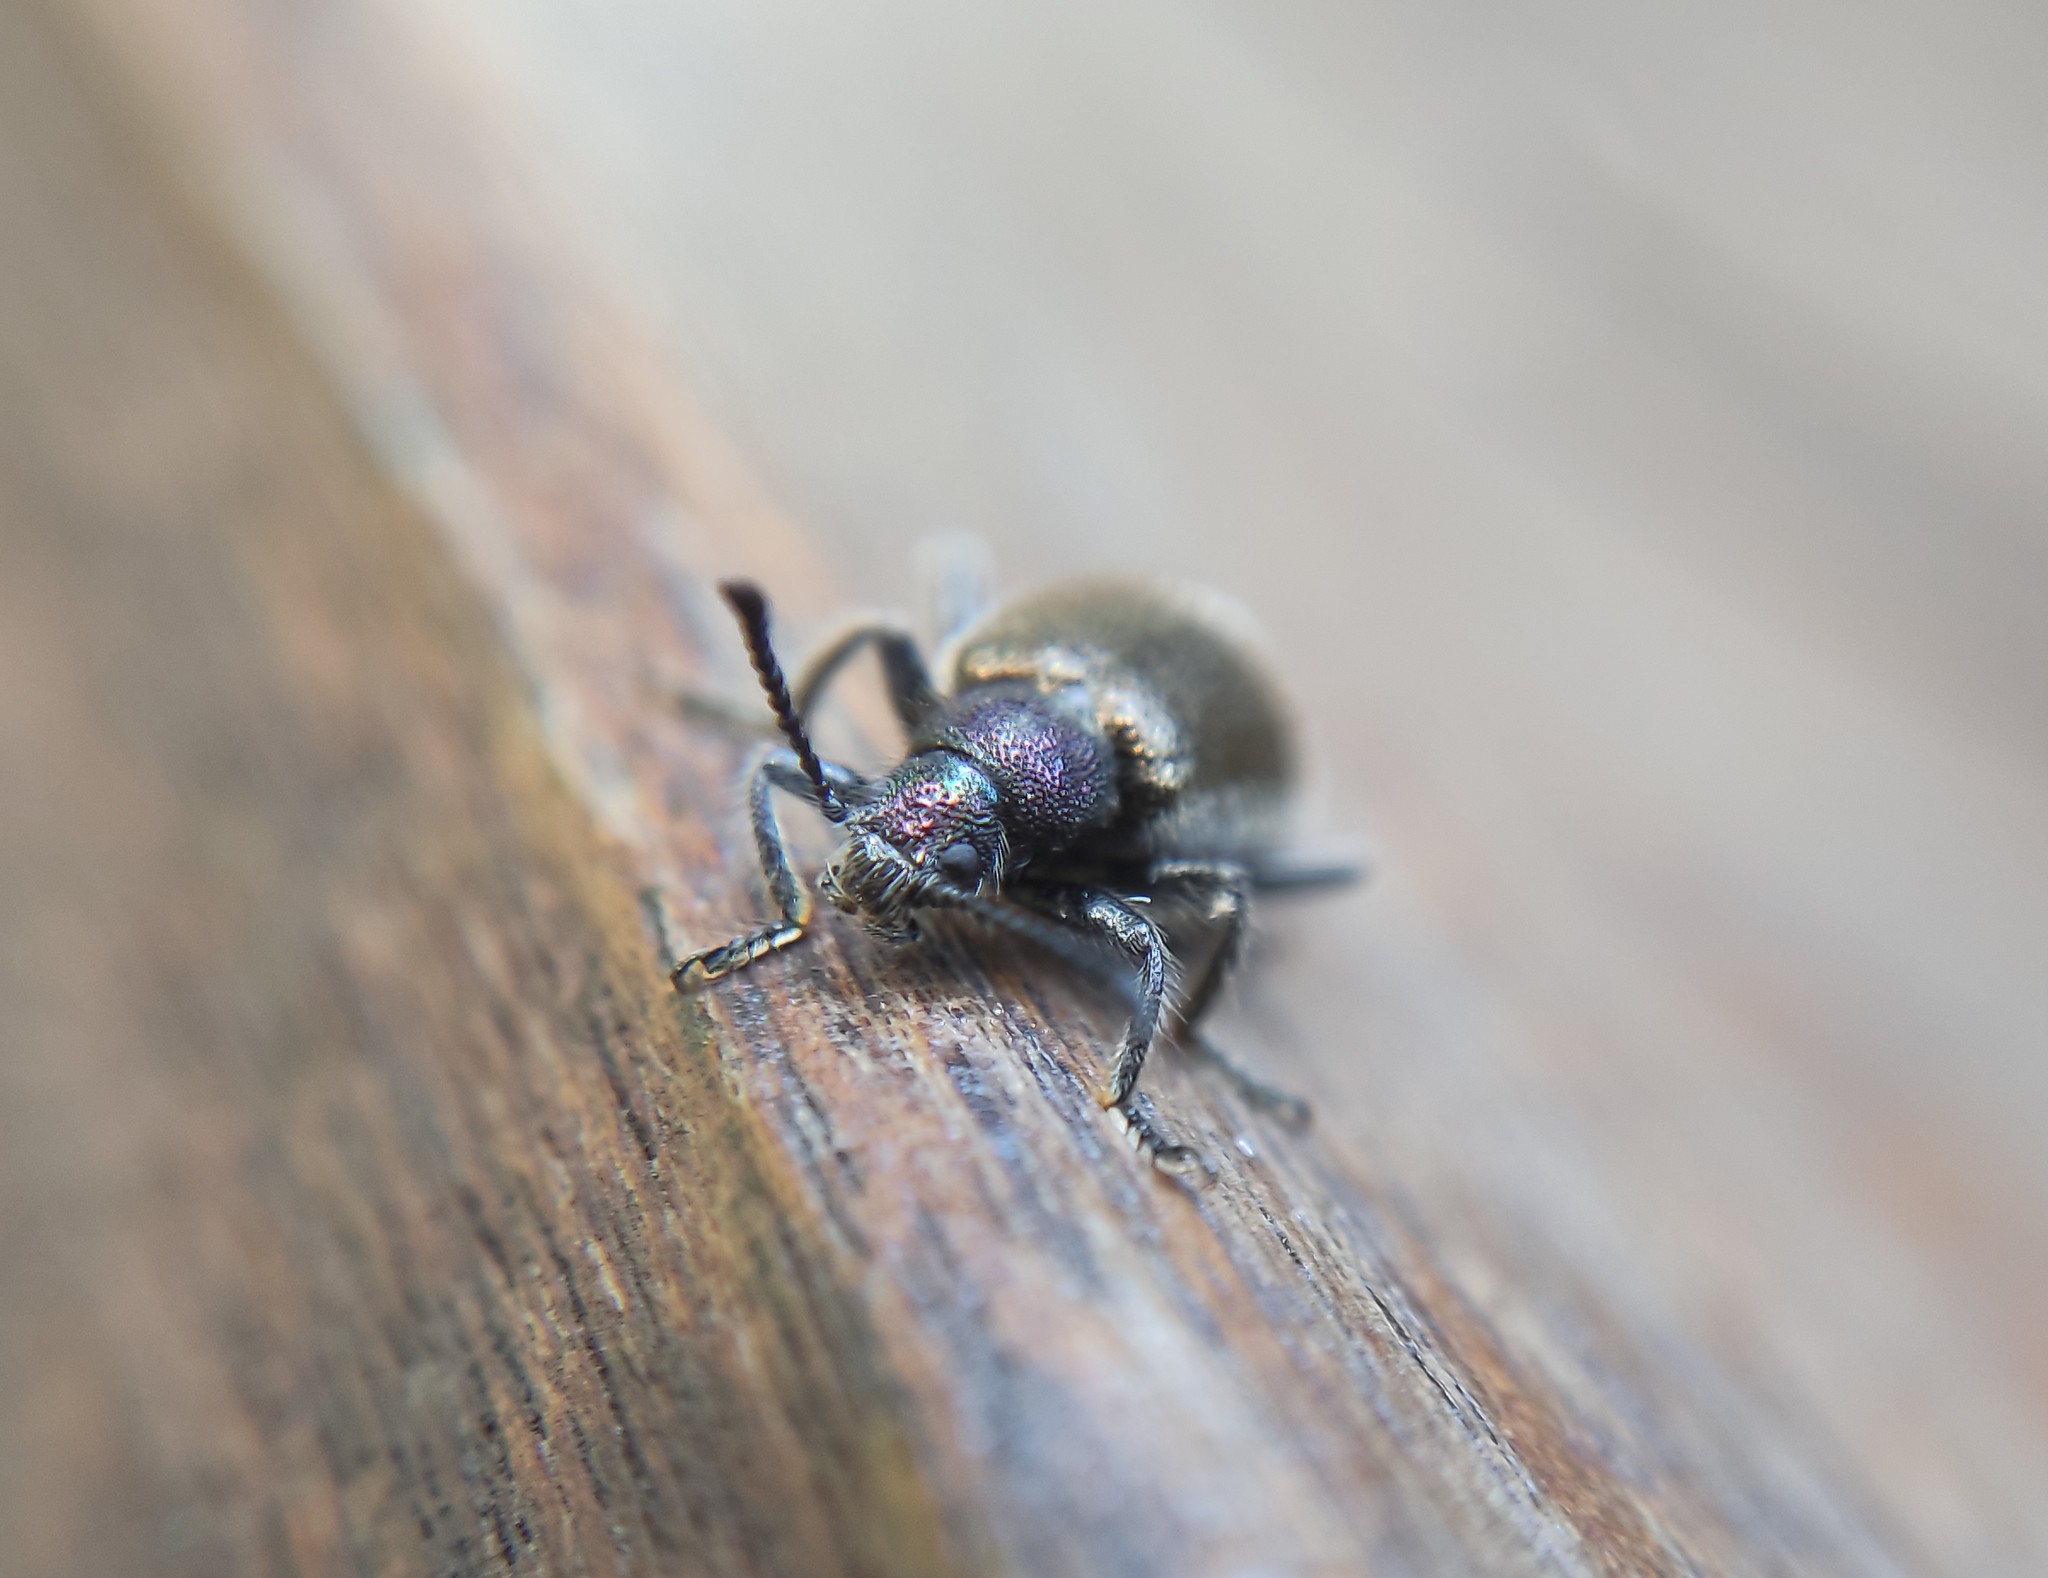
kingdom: Animalia
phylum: Arthropoda
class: Insecta
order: Coleoptera
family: Tenebrionidae
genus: Lagria
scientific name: Lagria villosa
